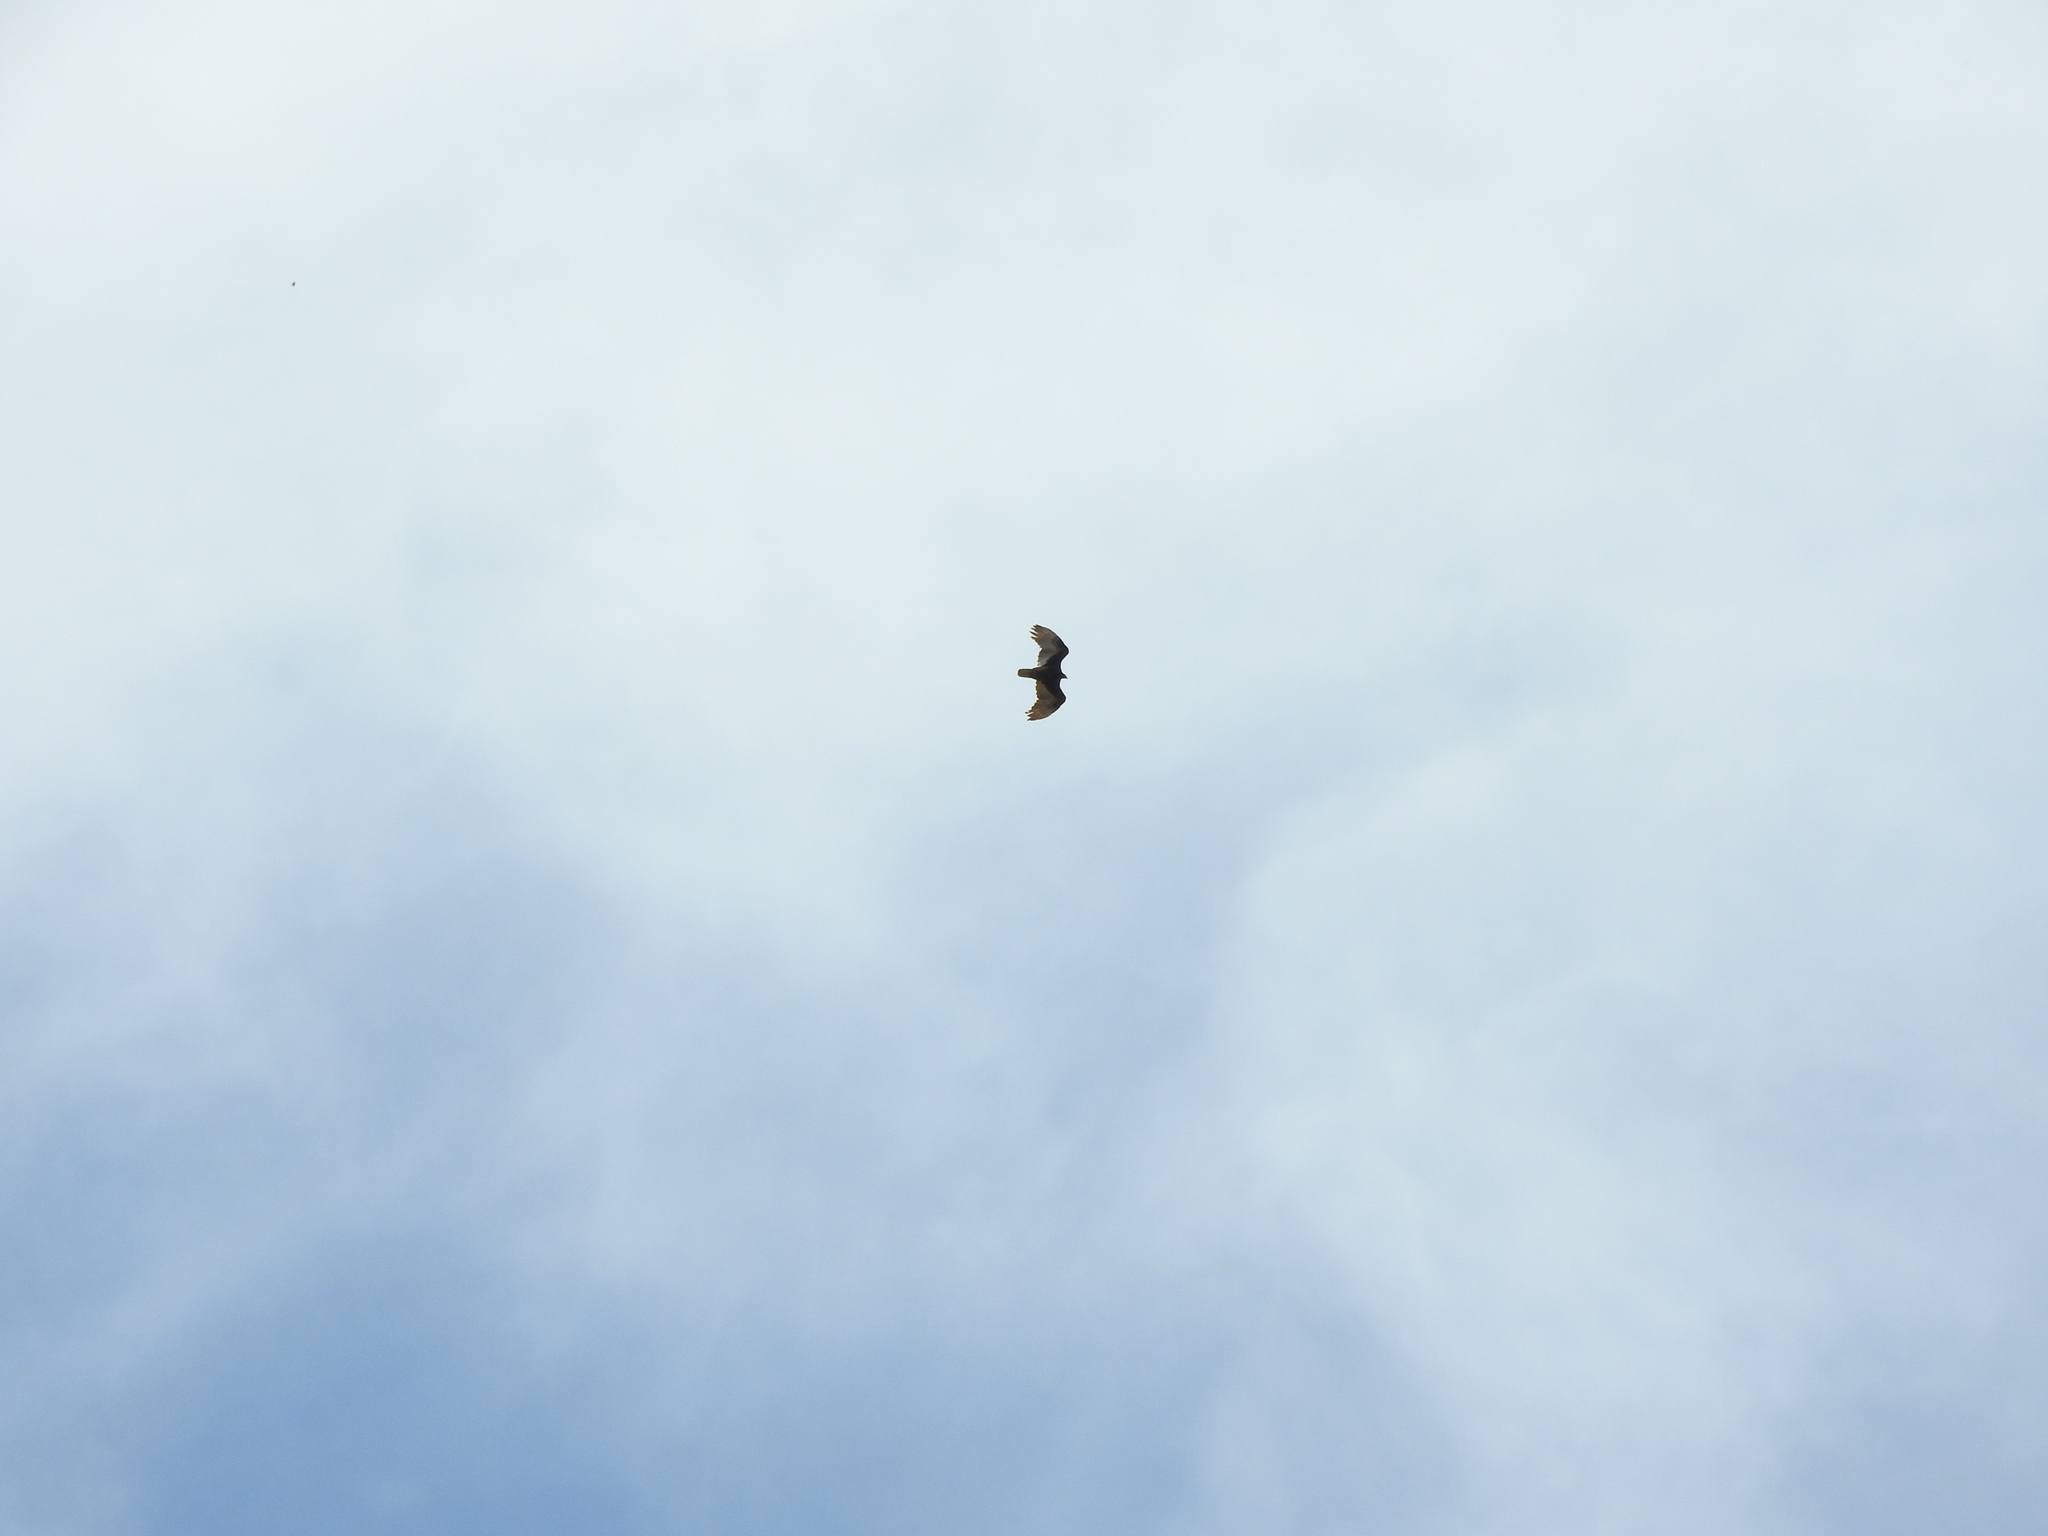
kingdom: Animalia
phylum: Chordata
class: Aves
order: Accipitriformes
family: Cathartidae
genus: Cathartes
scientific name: Cathartes aura
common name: Turkey vulture
